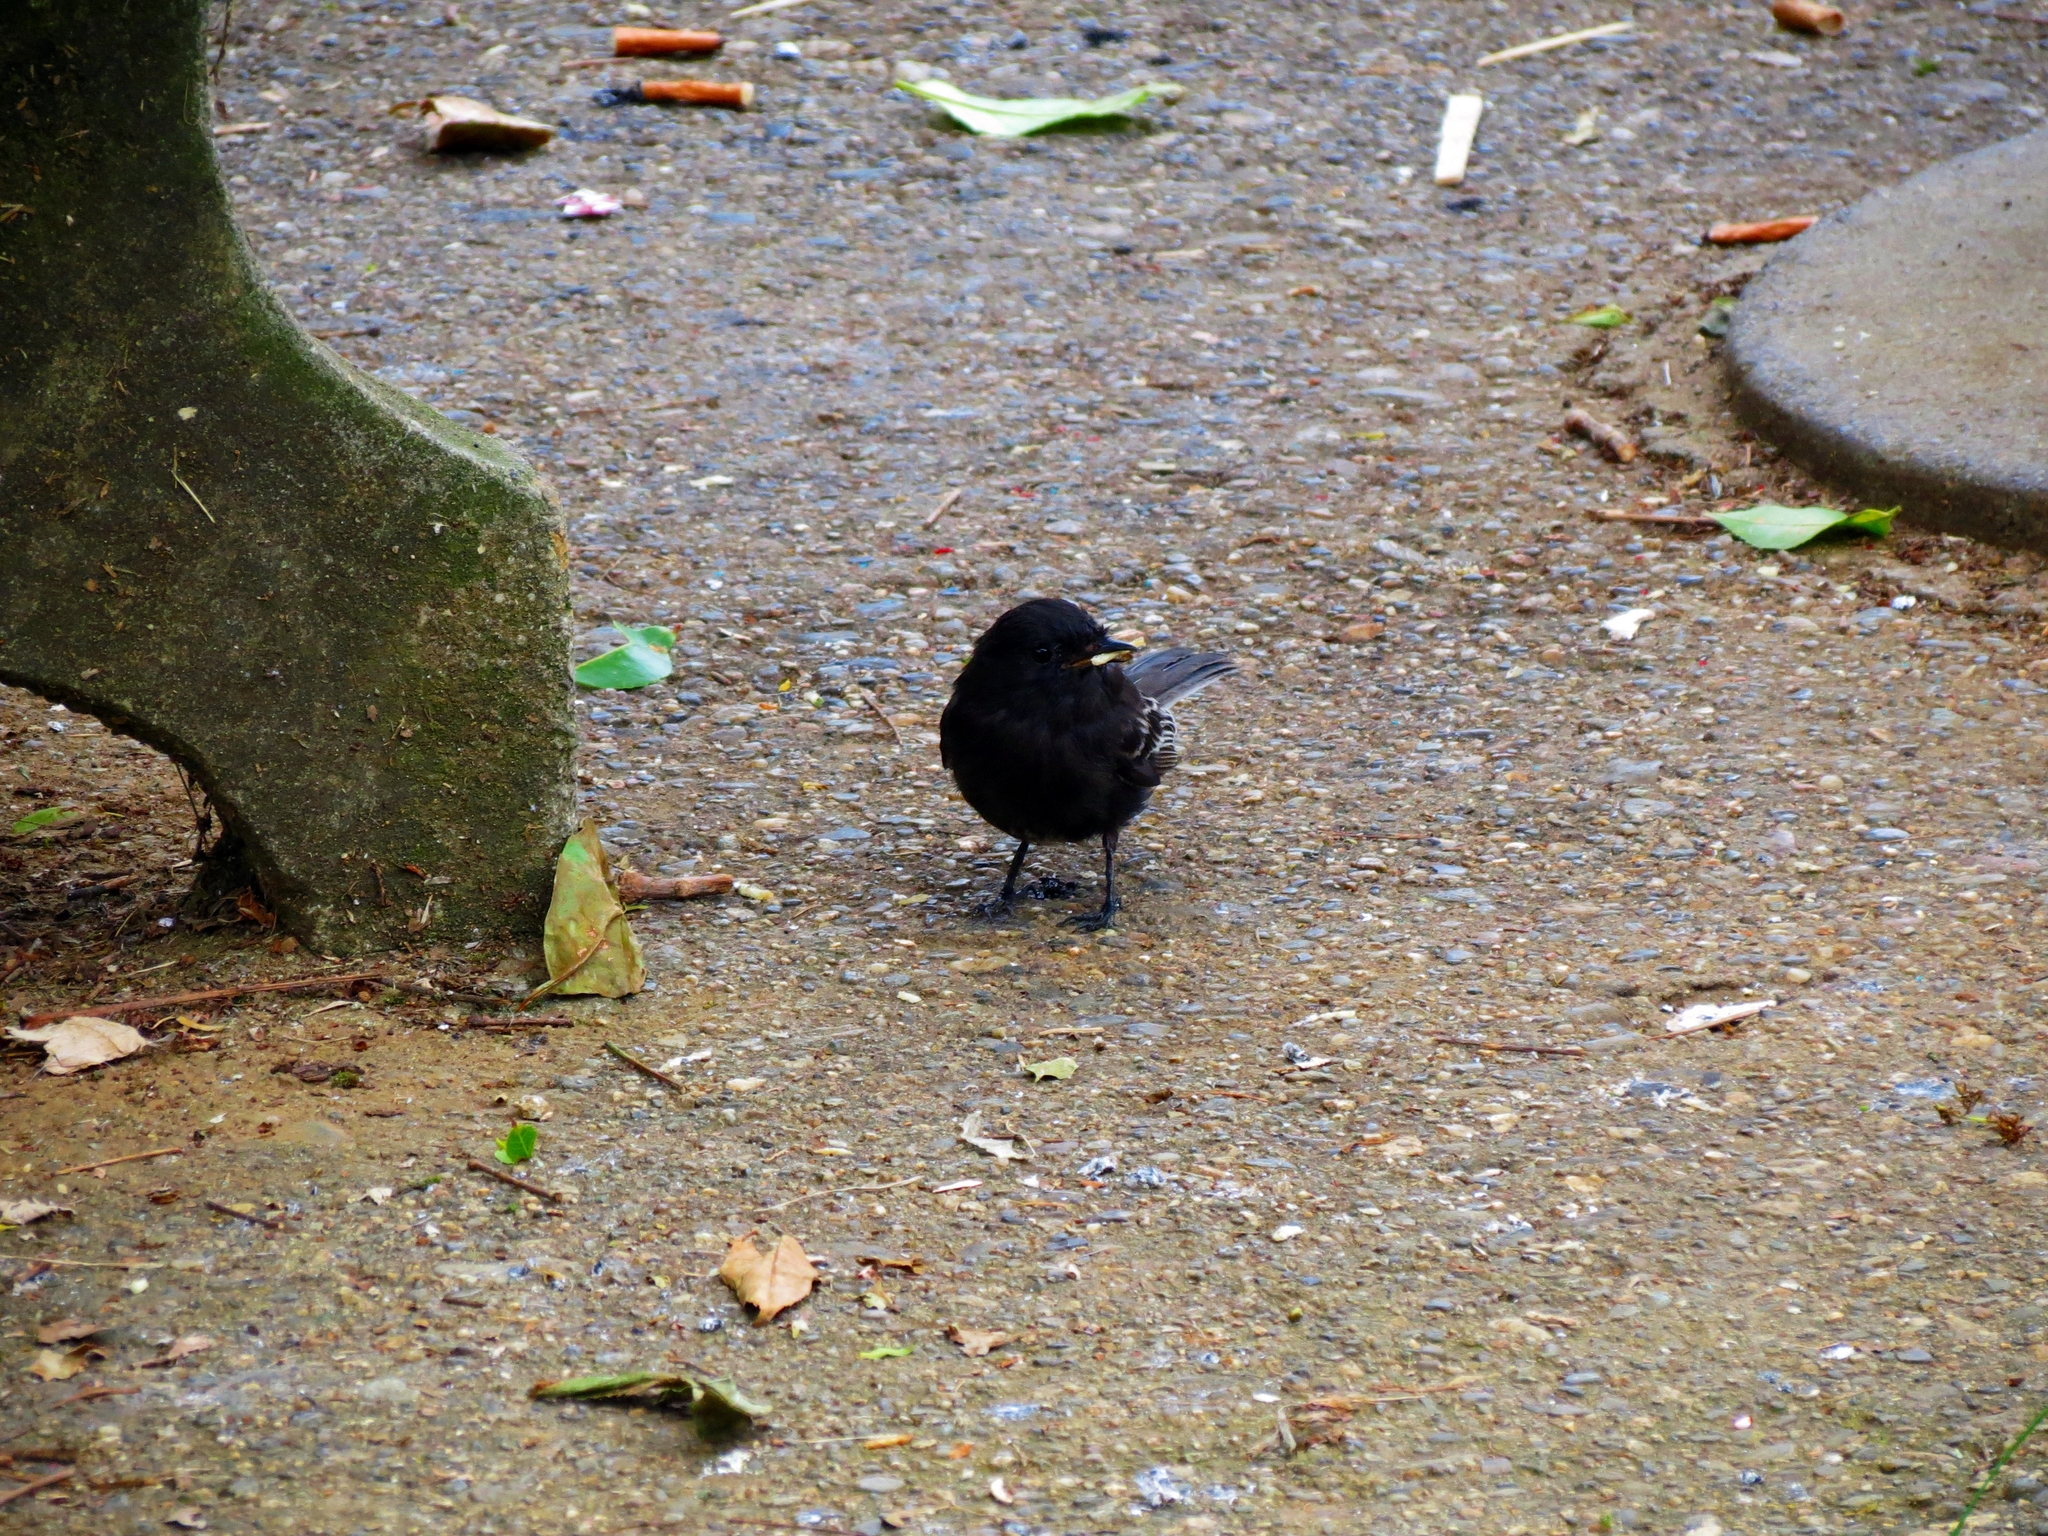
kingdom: Animalia
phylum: Chordata
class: Aves
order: Passeriformes
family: Tyrannidae
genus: Sayornis
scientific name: Sayornis nigricans
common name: Black phoebe
